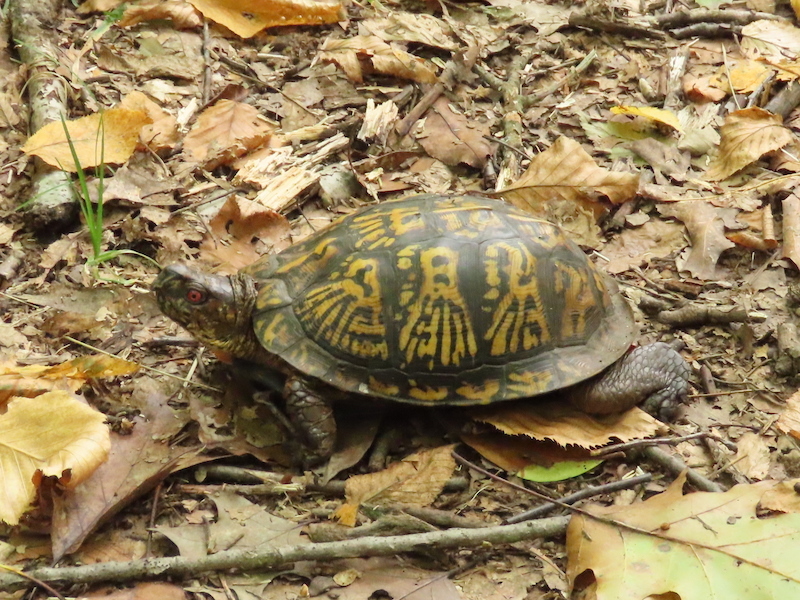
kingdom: Animalia
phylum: Chordata
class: Testudines
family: Emydidae
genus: Terrapene
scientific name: Terrapene carolina
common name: Common box turtle
